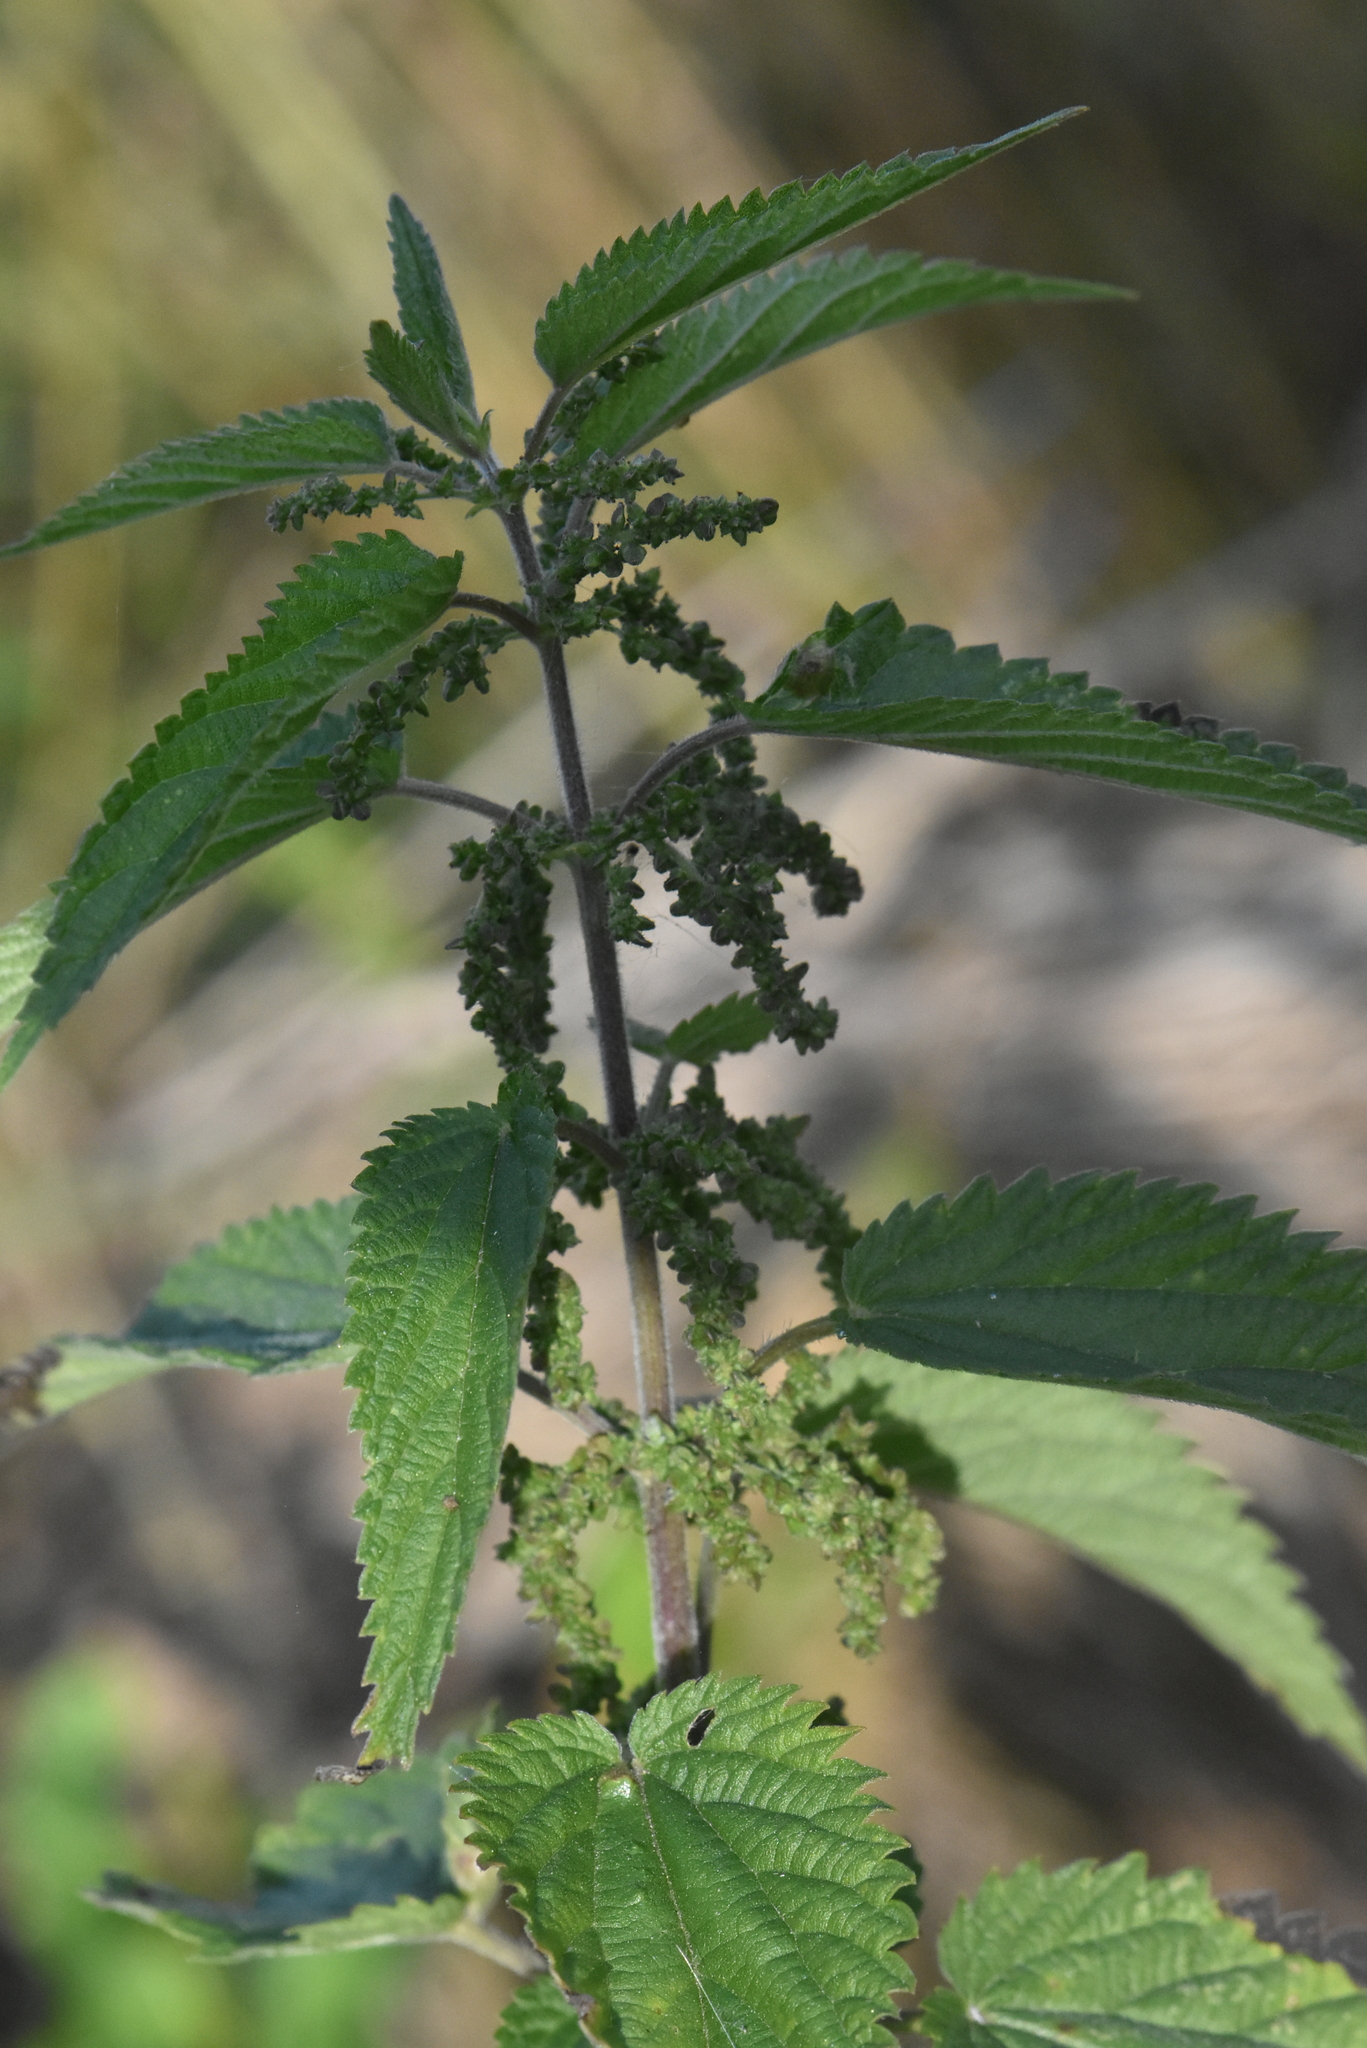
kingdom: Plantae
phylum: Tracheophyta
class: Magnoliopsida
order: Rosales
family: Urticaceae
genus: Urtica
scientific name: Urtica dioica
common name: Common nettle
